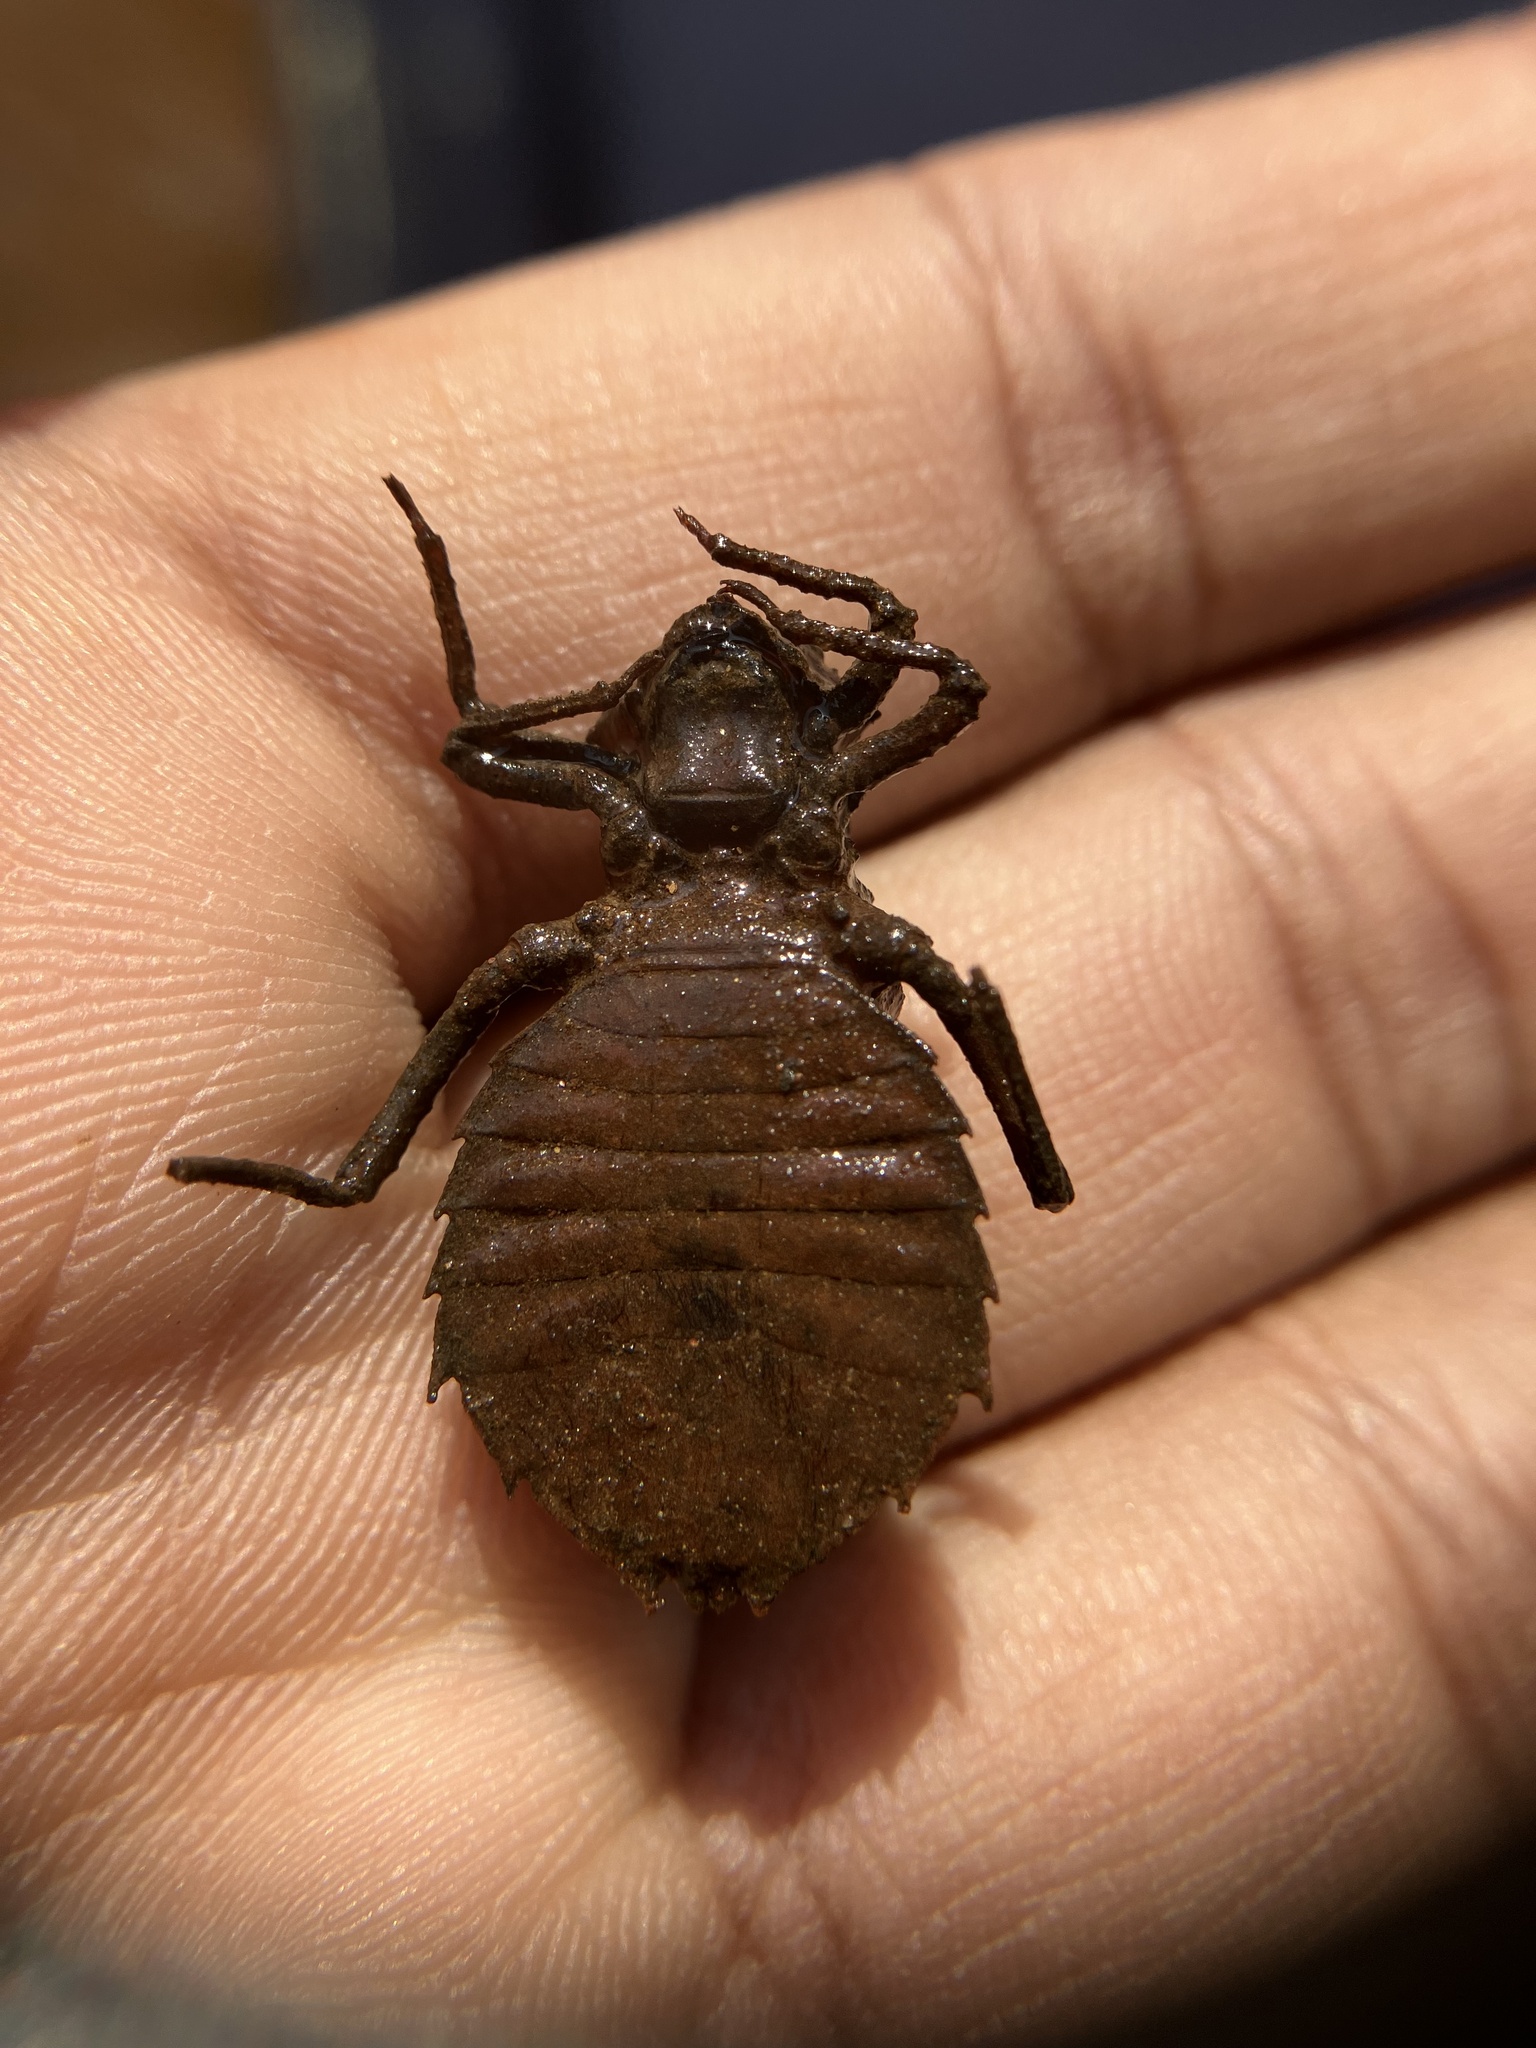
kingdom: Animalia
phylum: Arthropoda
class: Insecta
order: Odonata
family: Gomphidae
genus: Ictinogomphus
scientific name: Ictinogomphus rapax
